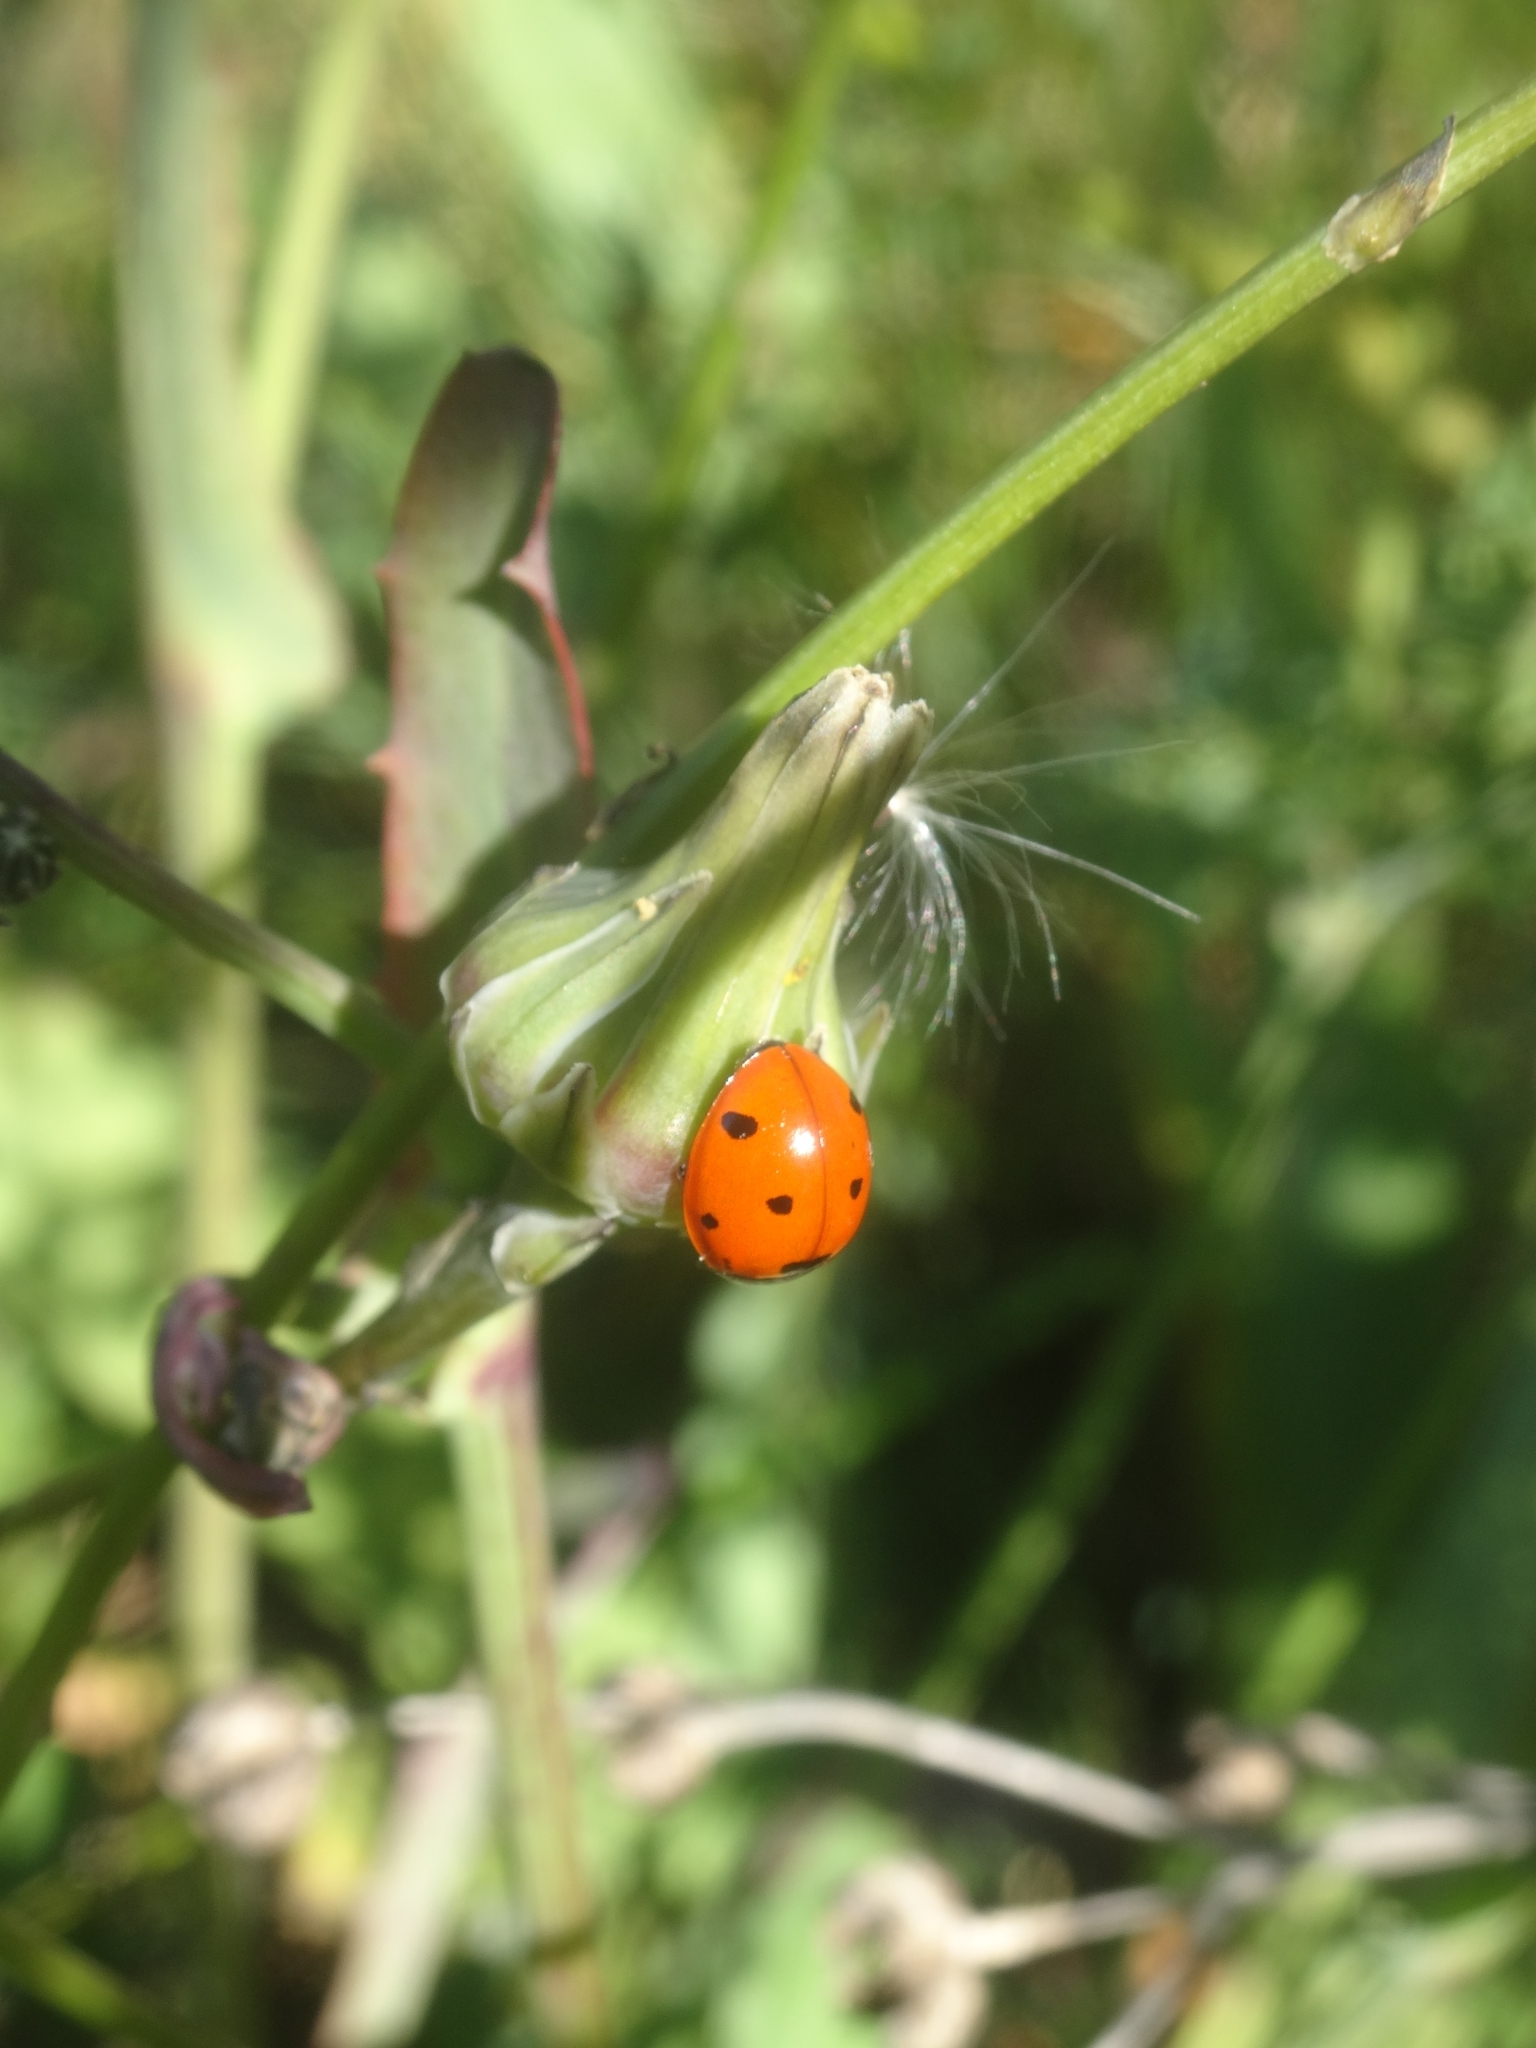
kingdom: Animalia
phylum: Arthropoda
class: Insecta
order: Coleoptera
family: Coccinellidae
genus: Coccinella
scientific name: Coccinella septempunctata
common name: Sevenspotted lady beetle
